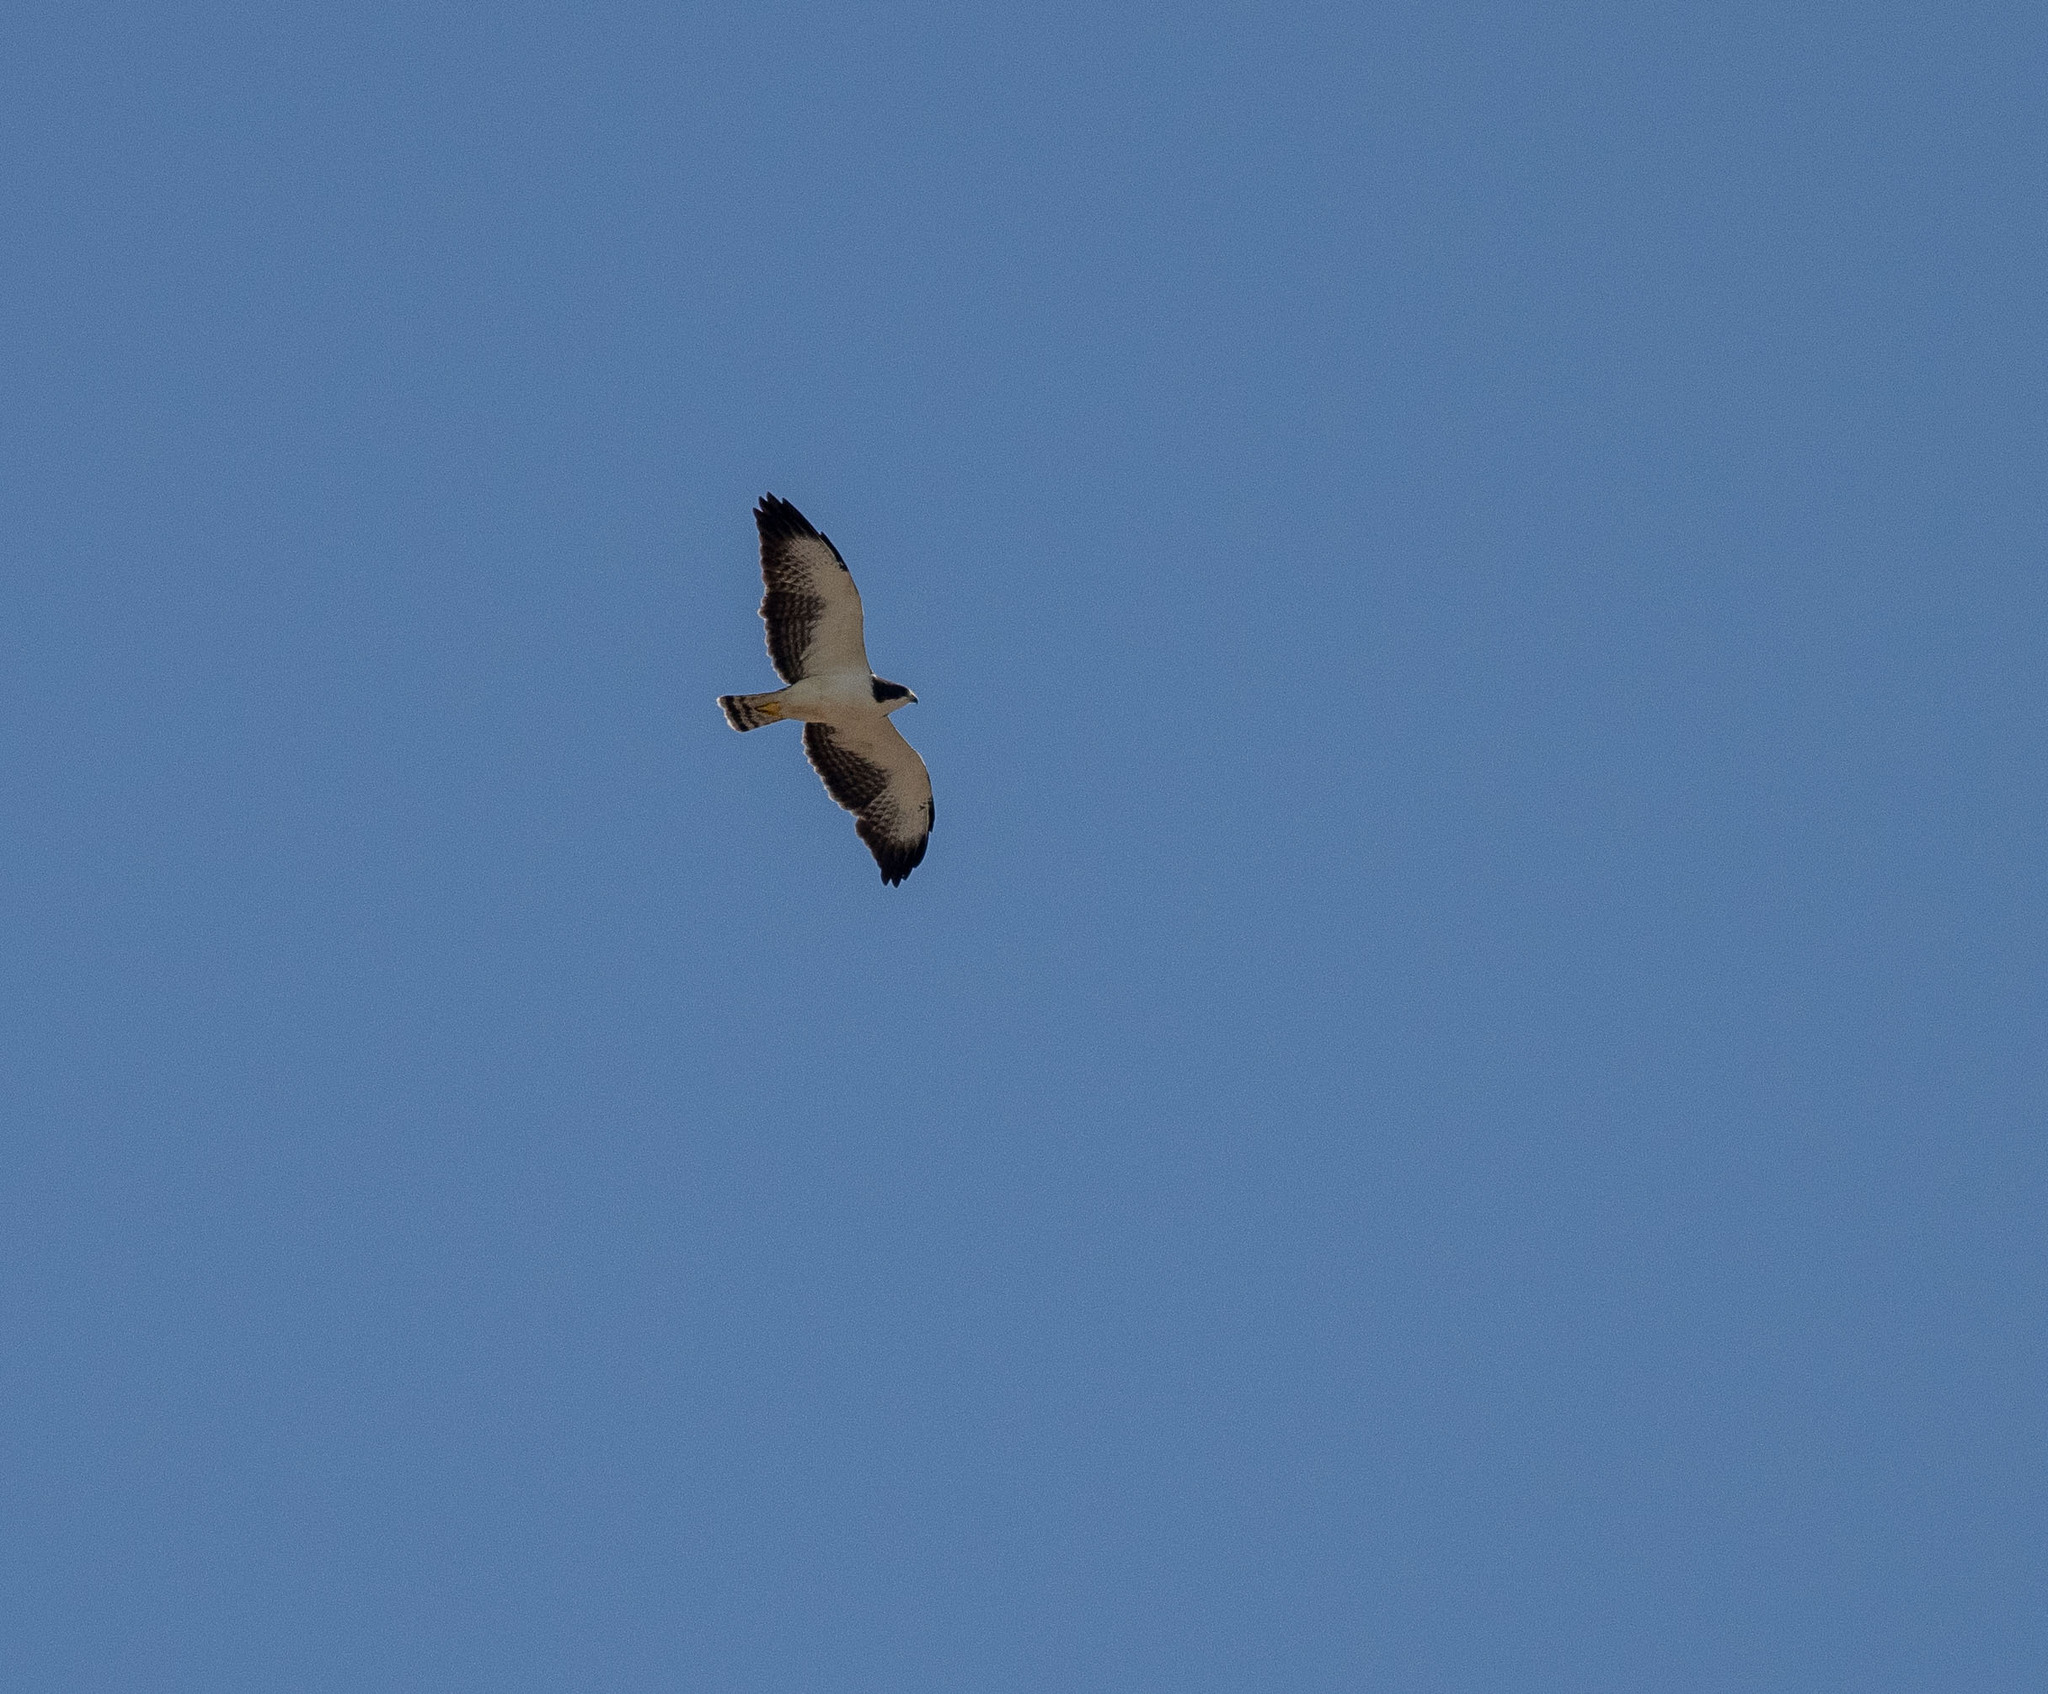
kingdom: Animalia
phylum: Chordata
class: Aves
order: Accipitriformes
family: Accipitridae
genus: Buteo
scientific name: Buteo brachyurus
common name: Short-tailed hawk
